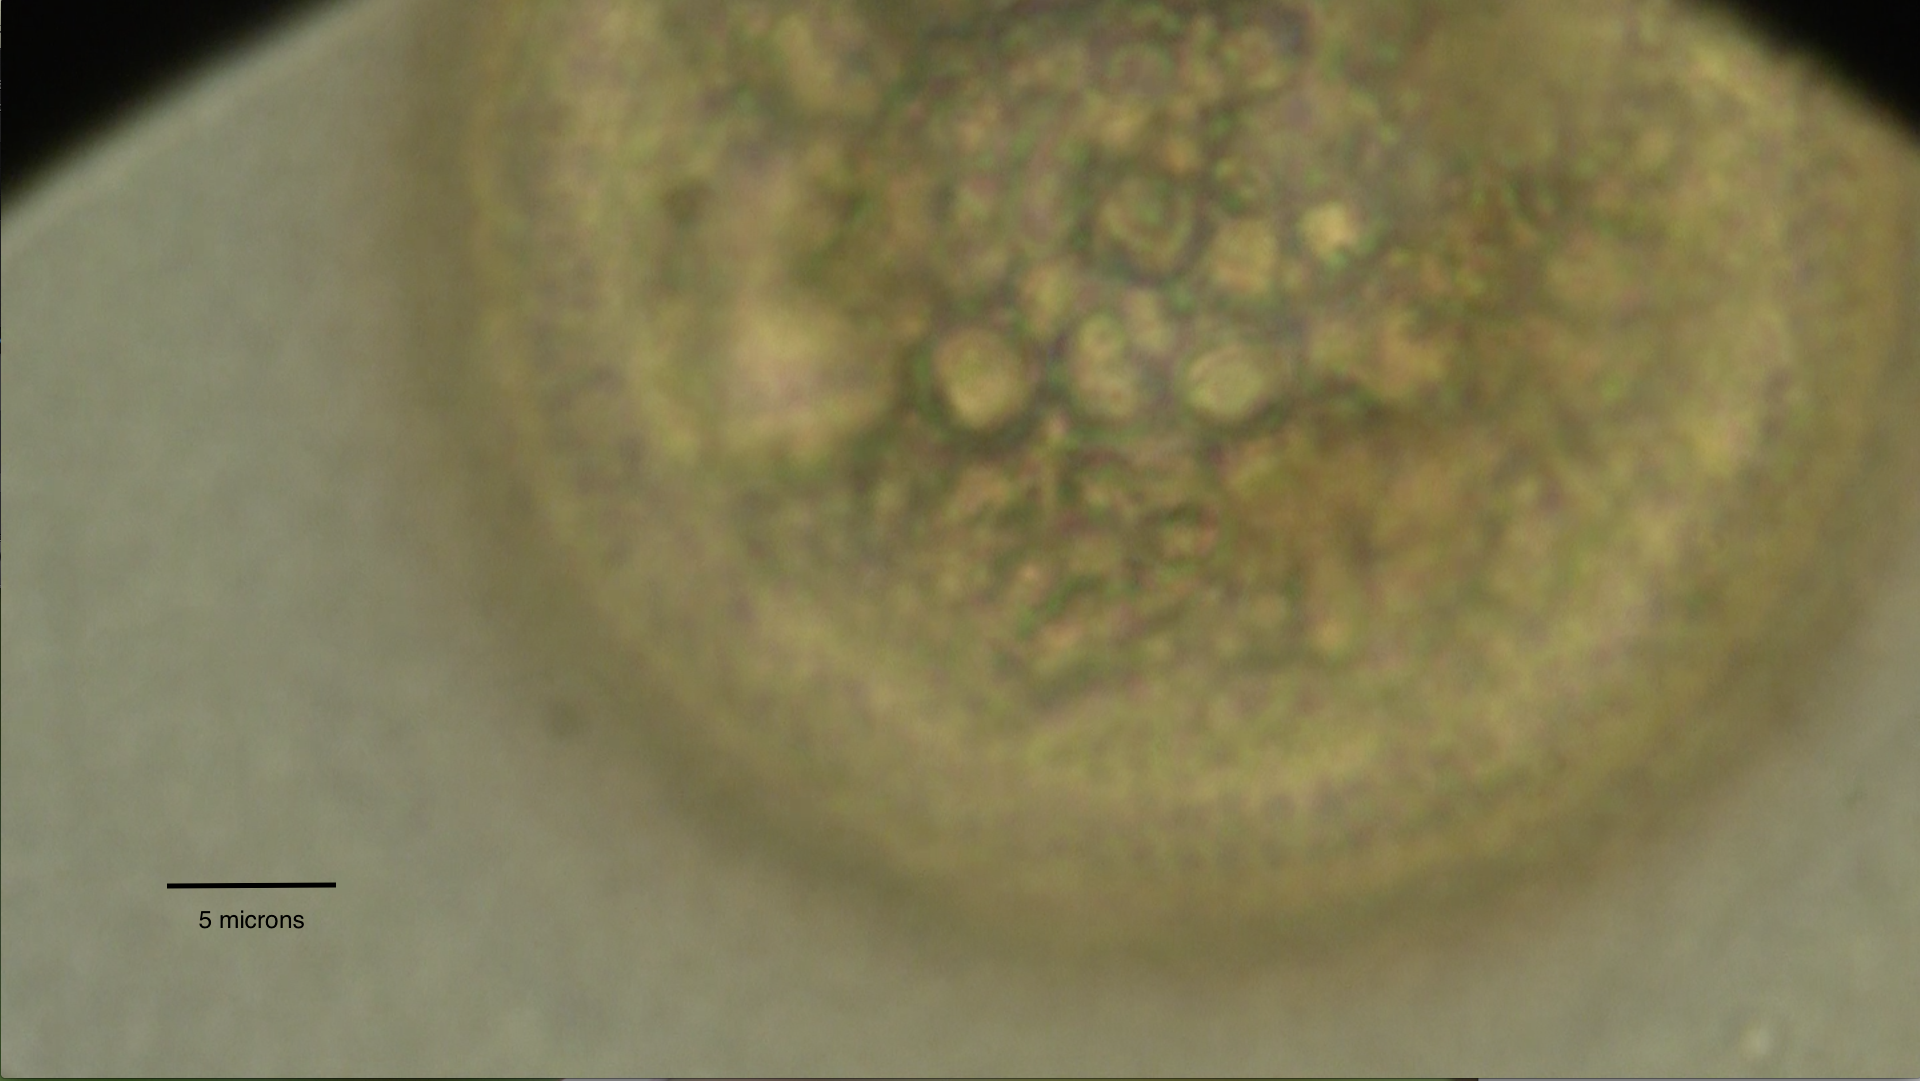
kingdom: Protozoa
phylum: Amoebozoa
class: Lobosa
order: Arcellinida
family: Arcellidae
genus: Arcella
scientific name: Arcella vulgaris
